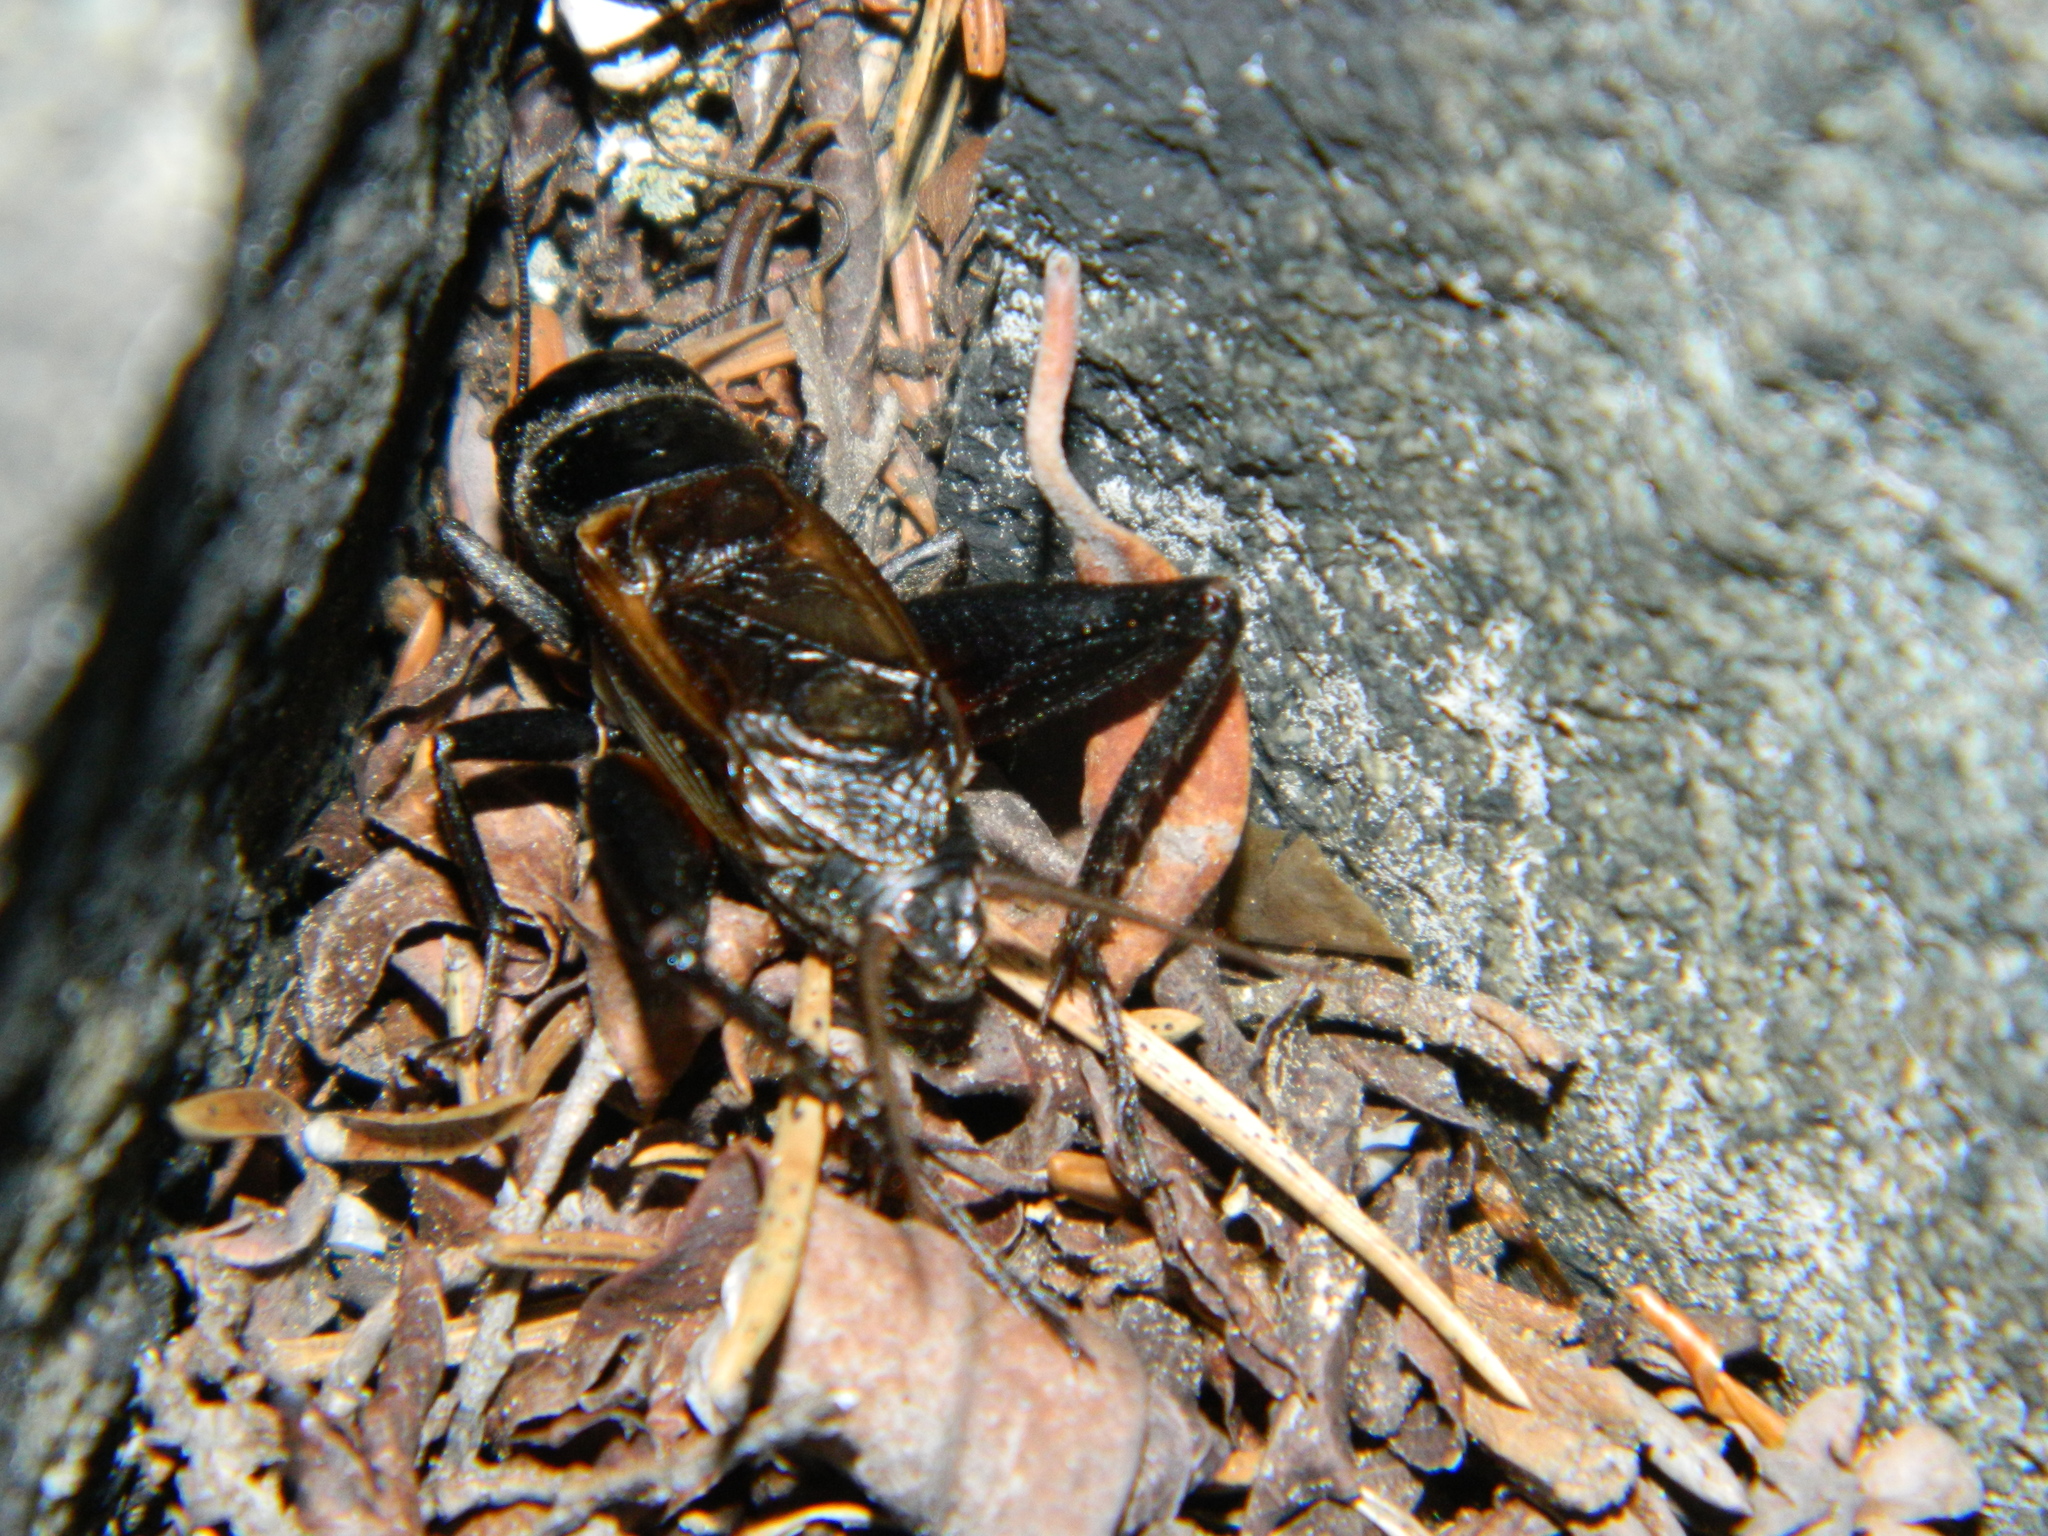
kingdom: Animalia
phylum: Arthropoda
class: Insecta
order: Orthoptera
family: Gryllidae
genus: Gryllus
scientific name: Gryllus pennsylvanicus
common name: Fall field cricket
